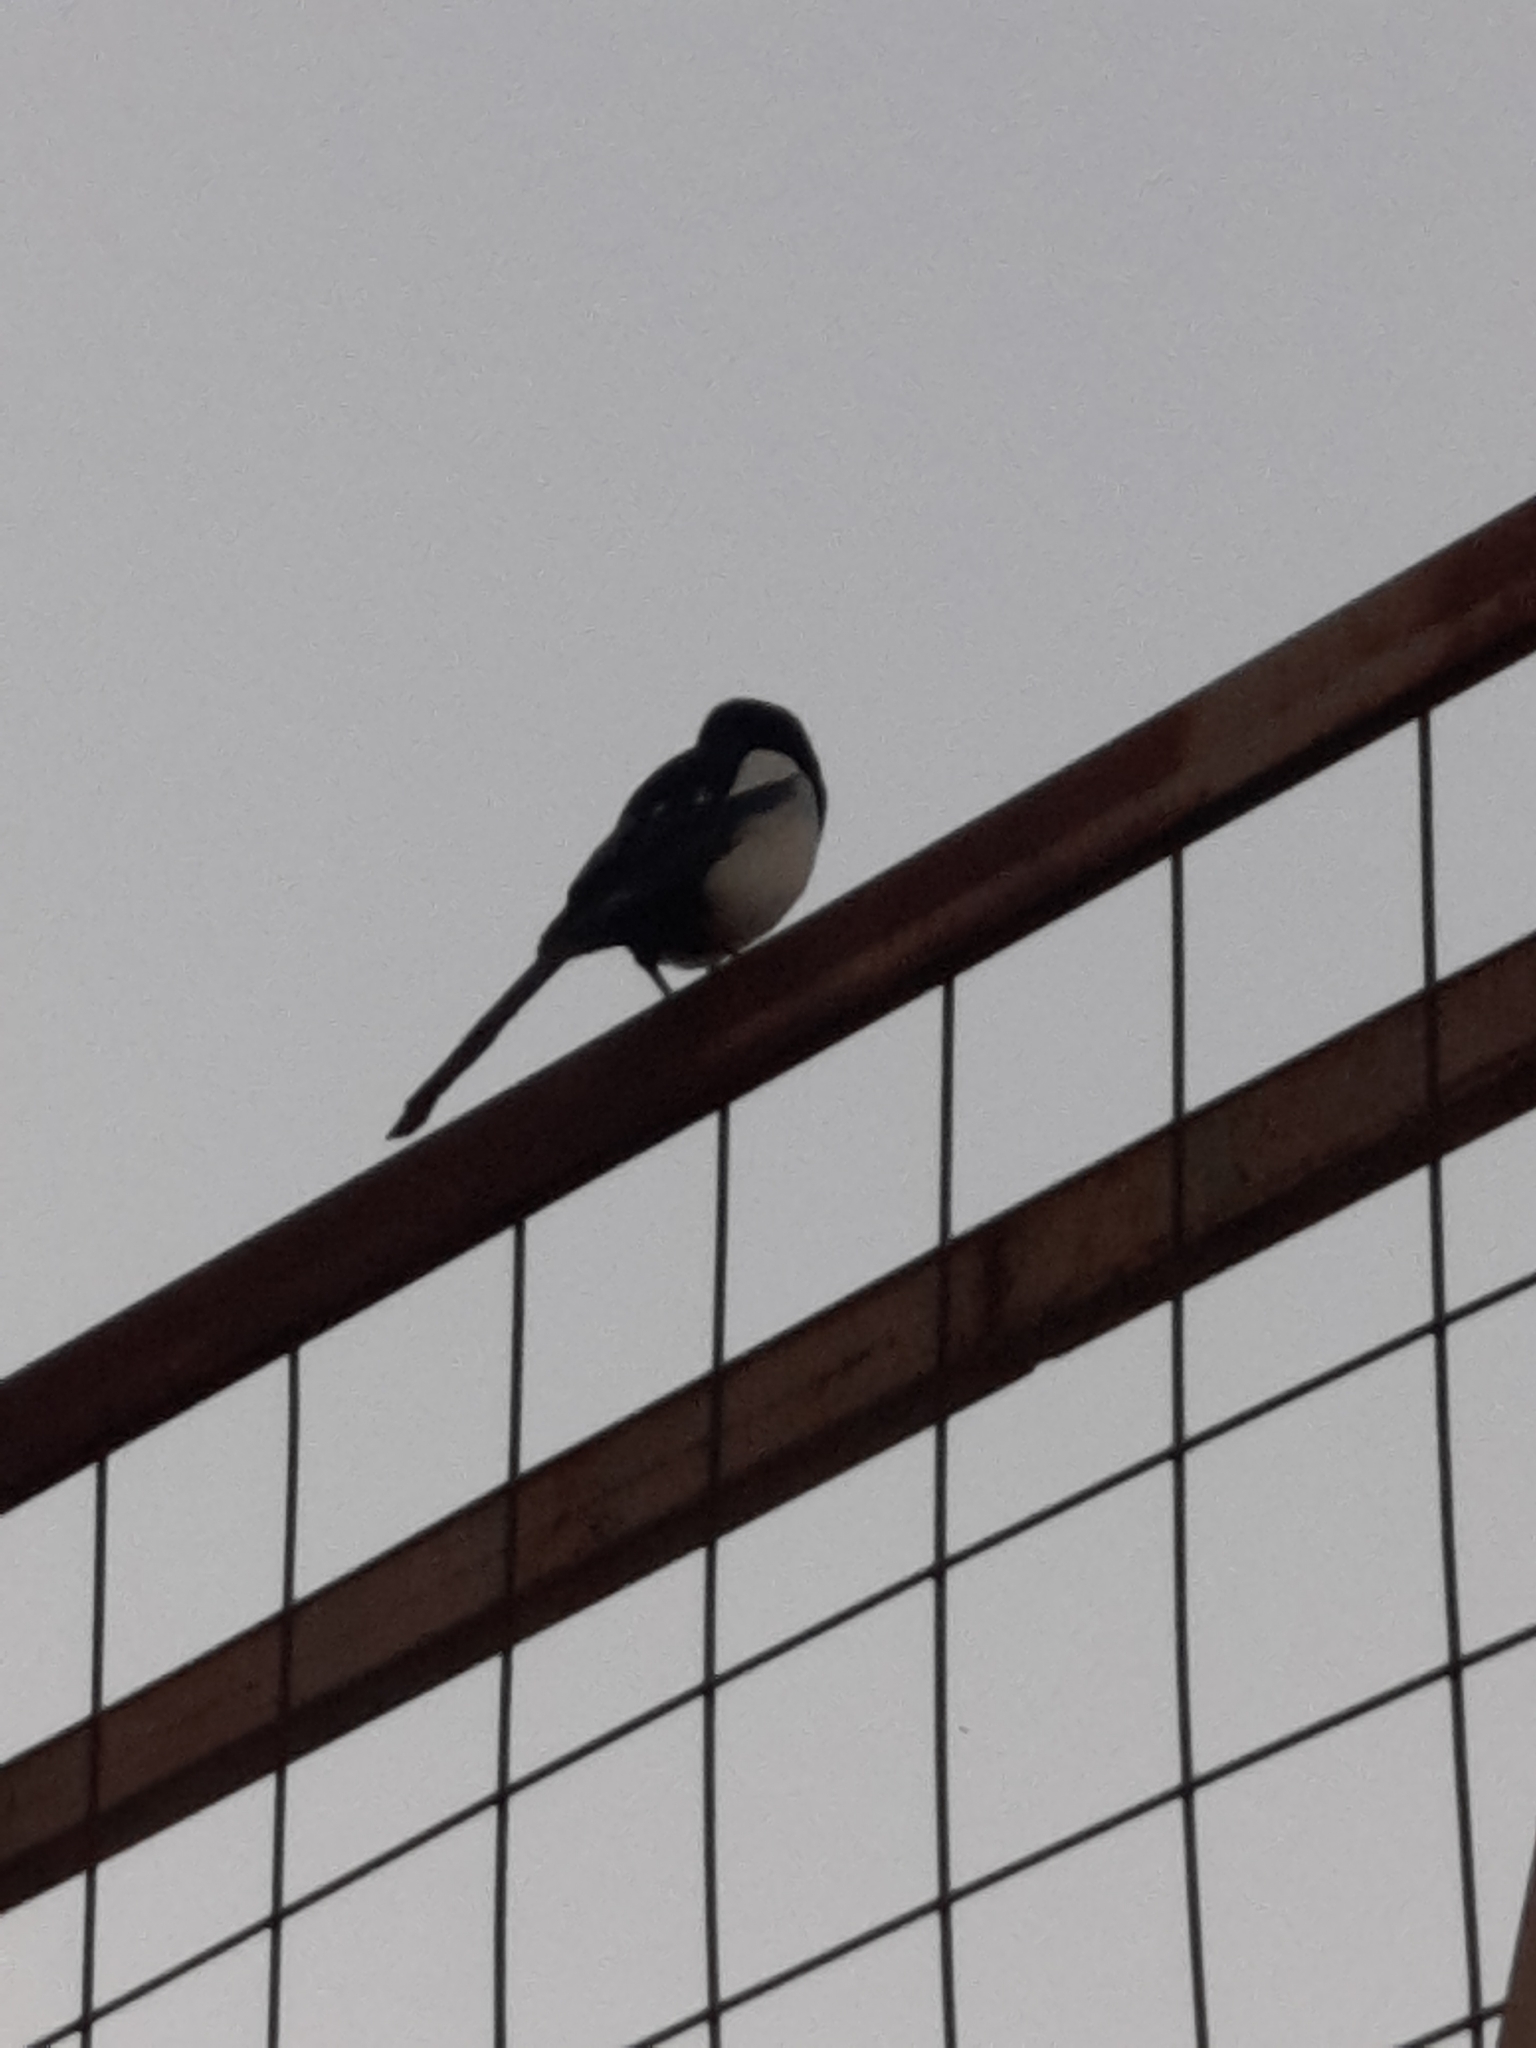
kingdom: Animalia
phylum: Chordata
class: Aves
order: Passeriformes
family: Corvidae
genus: Pica
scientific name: Pica pica
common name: Eurasian magpie
